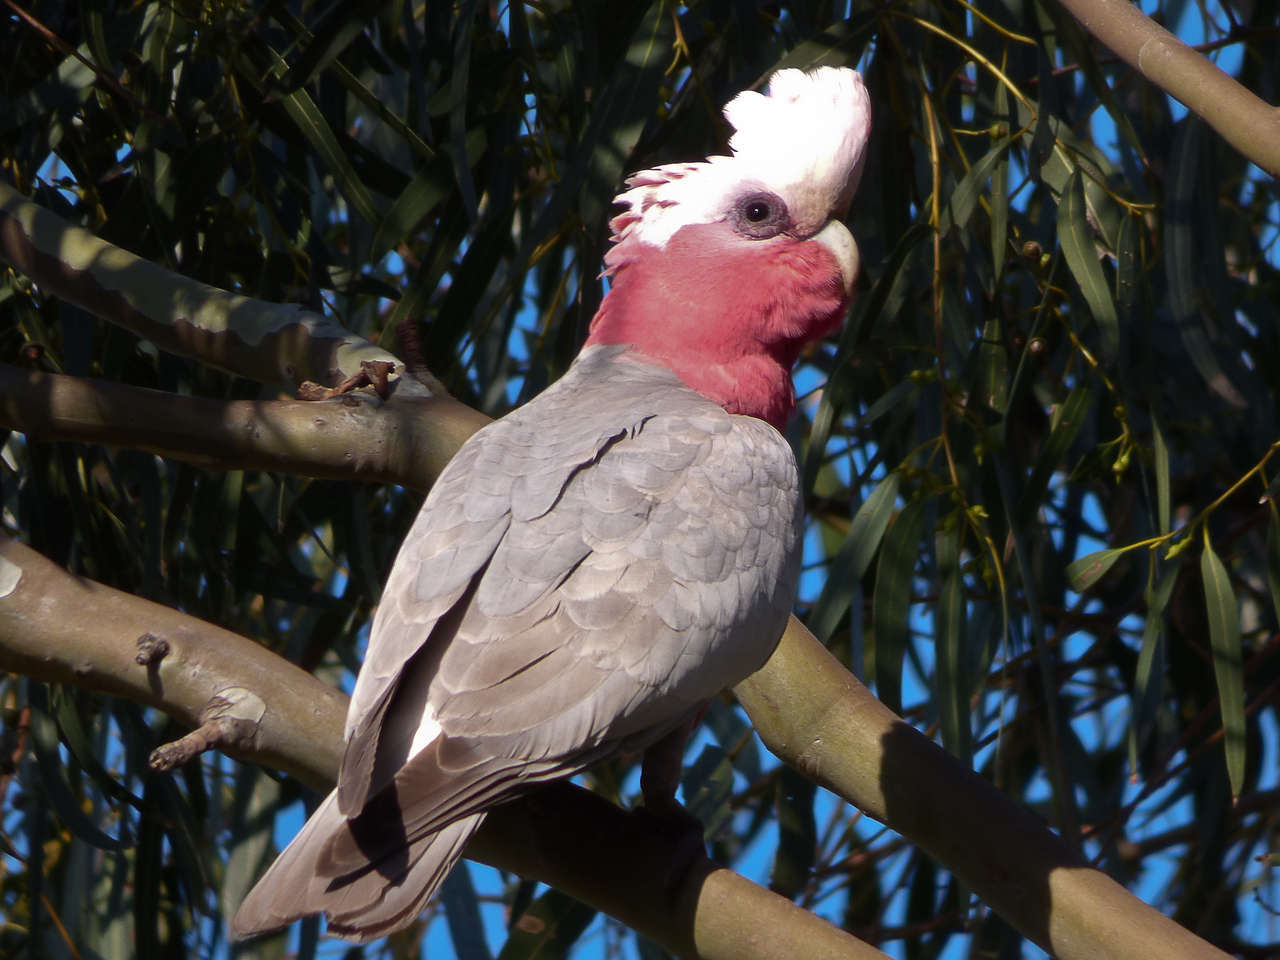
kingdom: Animalia
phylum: Chordata
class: Aves
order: Psittaciformes
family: Psittacidae
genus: Eolophus
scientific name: Eolophus roseicapilla
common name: Galah
